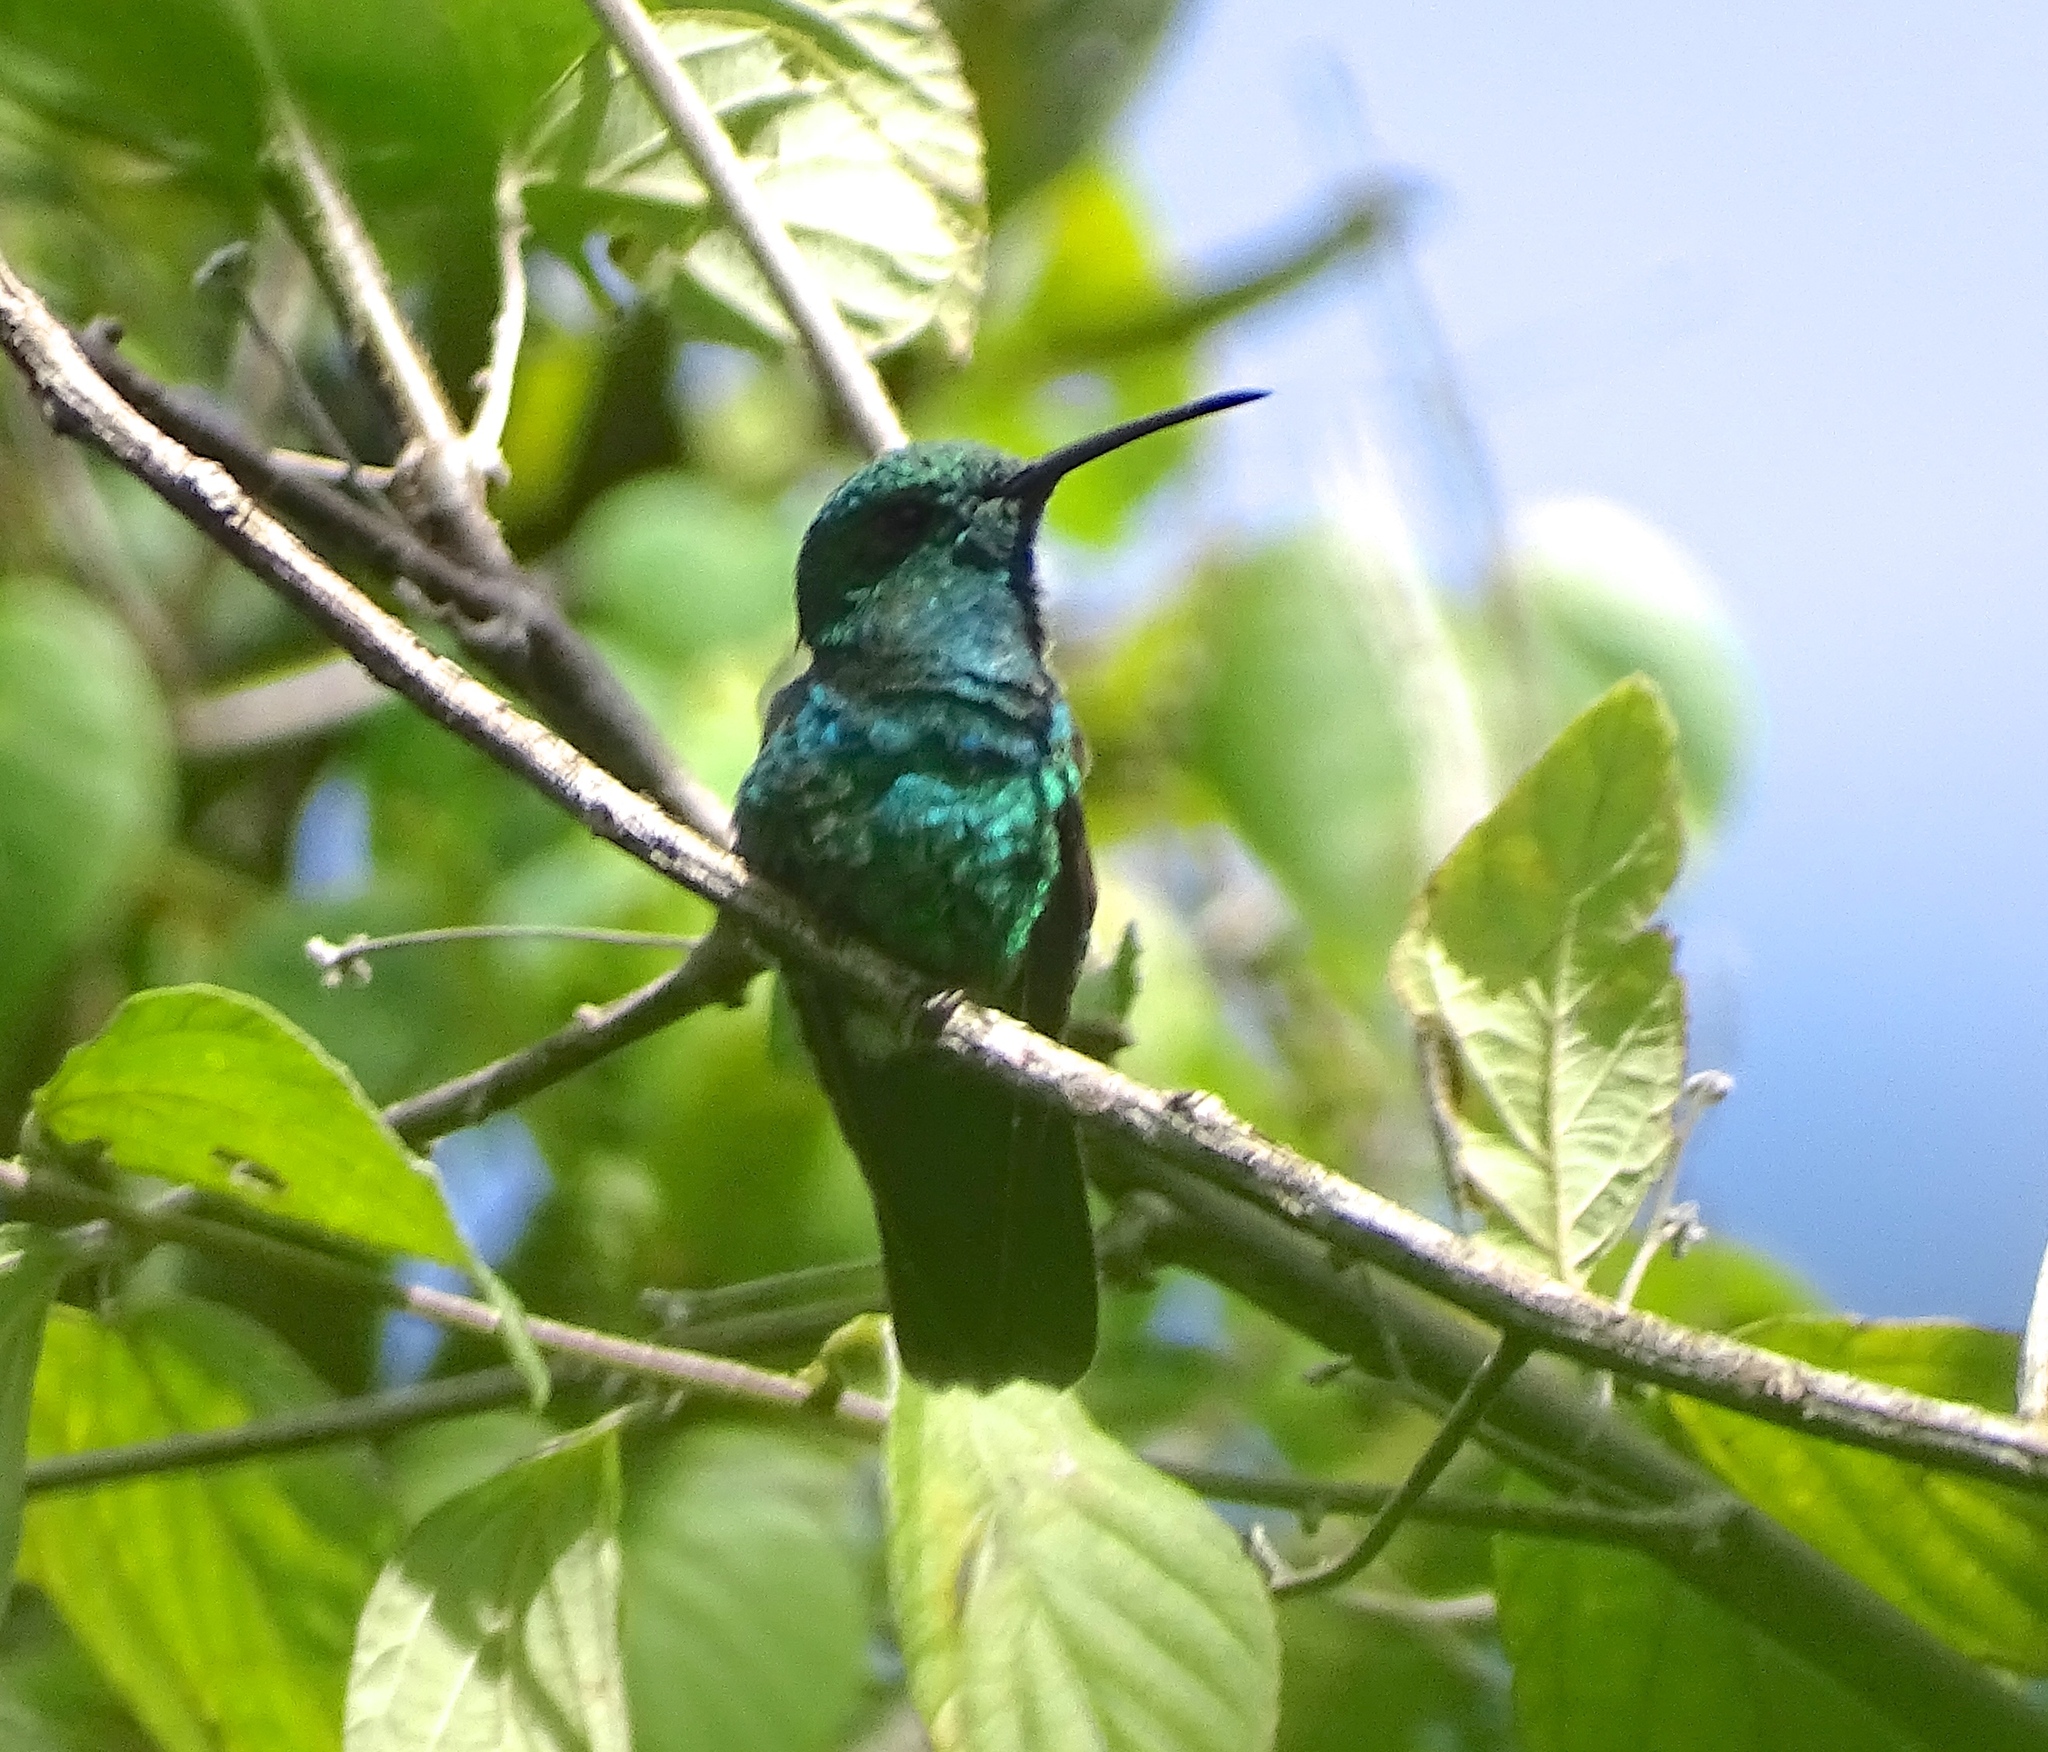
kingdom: Animalia
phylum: Chordata
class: Aves
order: Apodiformes
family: Trochilidae
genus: Anthracothorax
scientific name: Anthracothorax viridis
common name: Green mango
